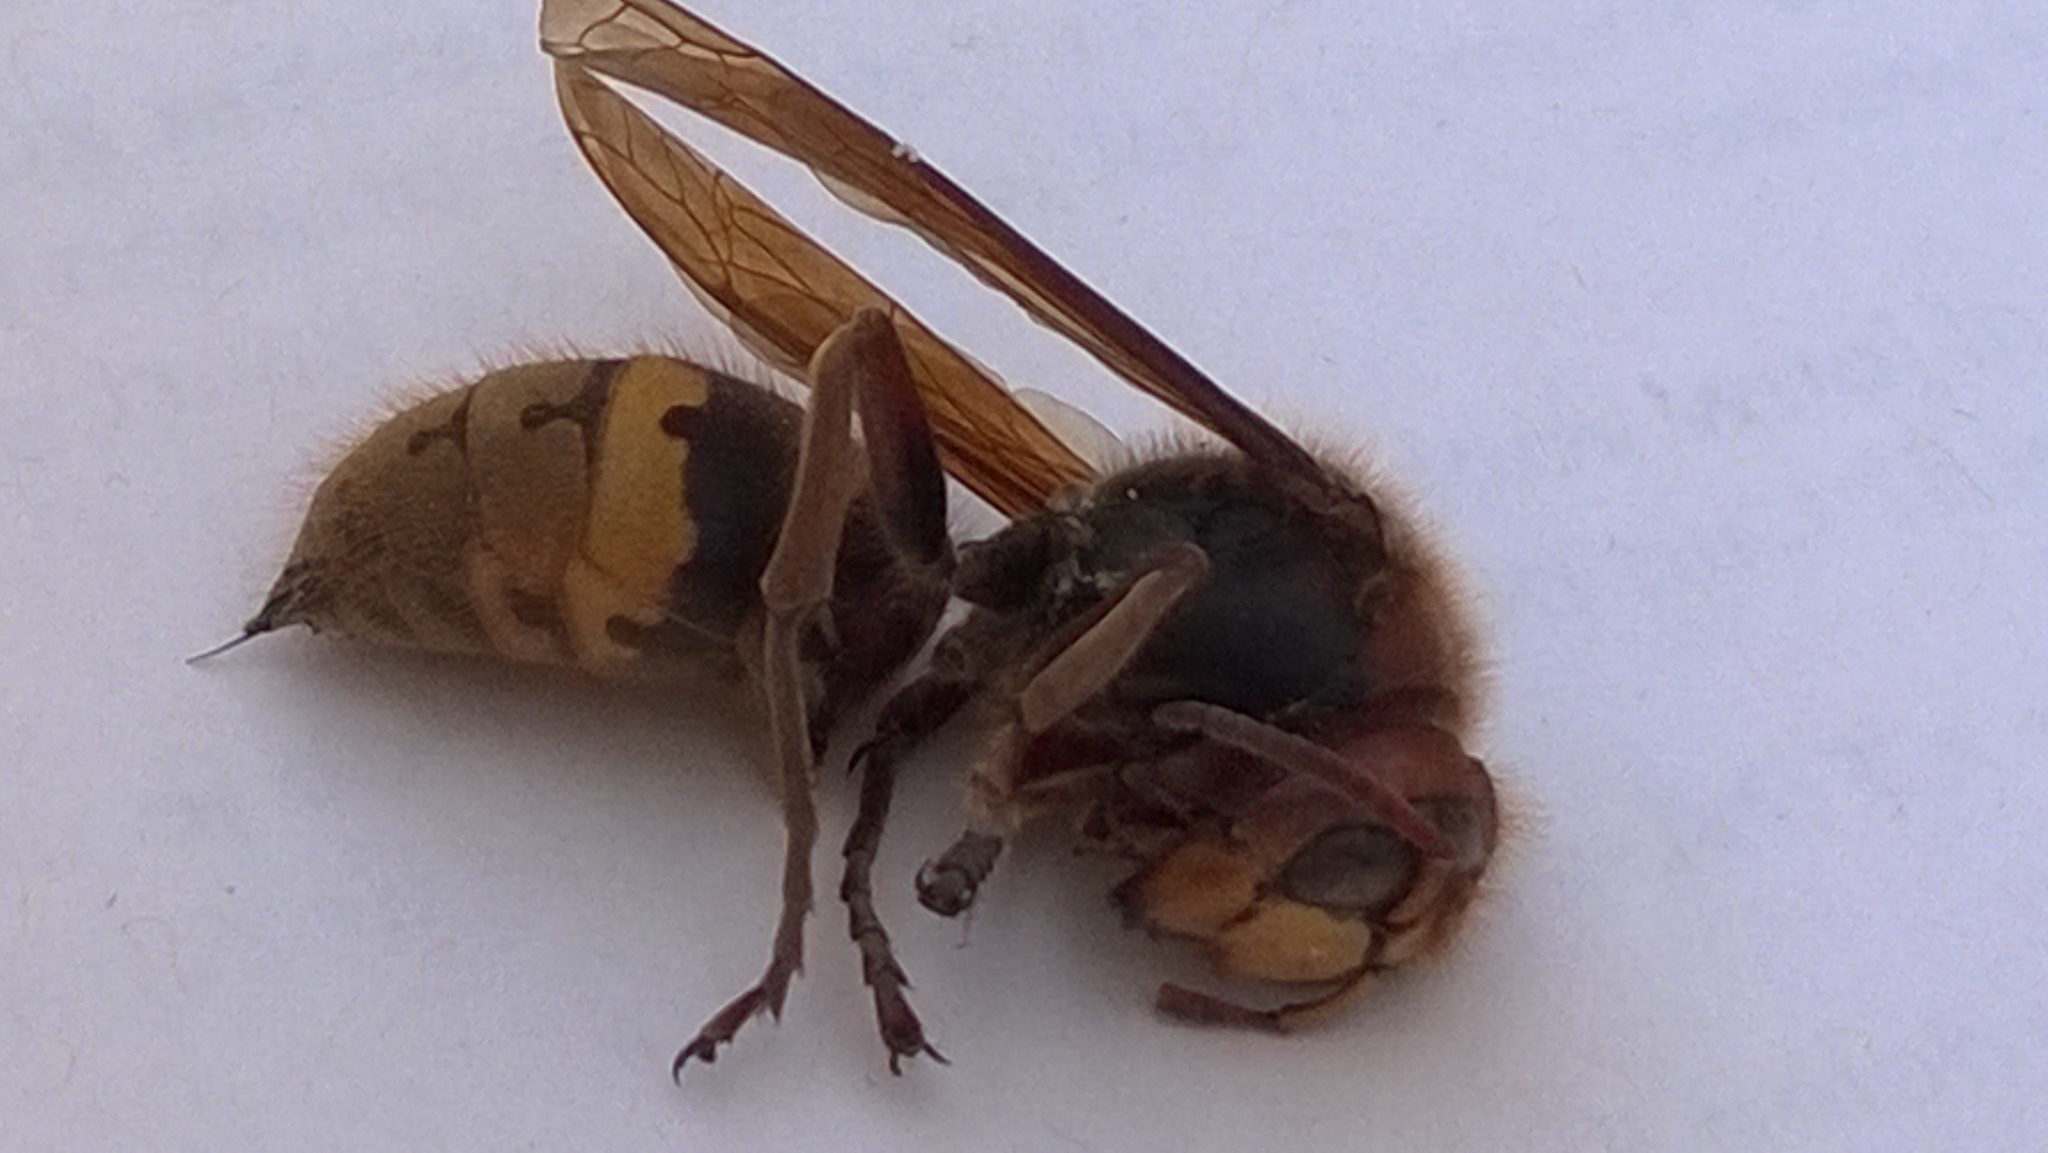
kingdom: Animalia
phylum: Arthropoda
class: Insecta
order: Hymenoptera
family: Vespidae
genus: Vespa
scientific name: Vespa crabro
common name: Hornet
